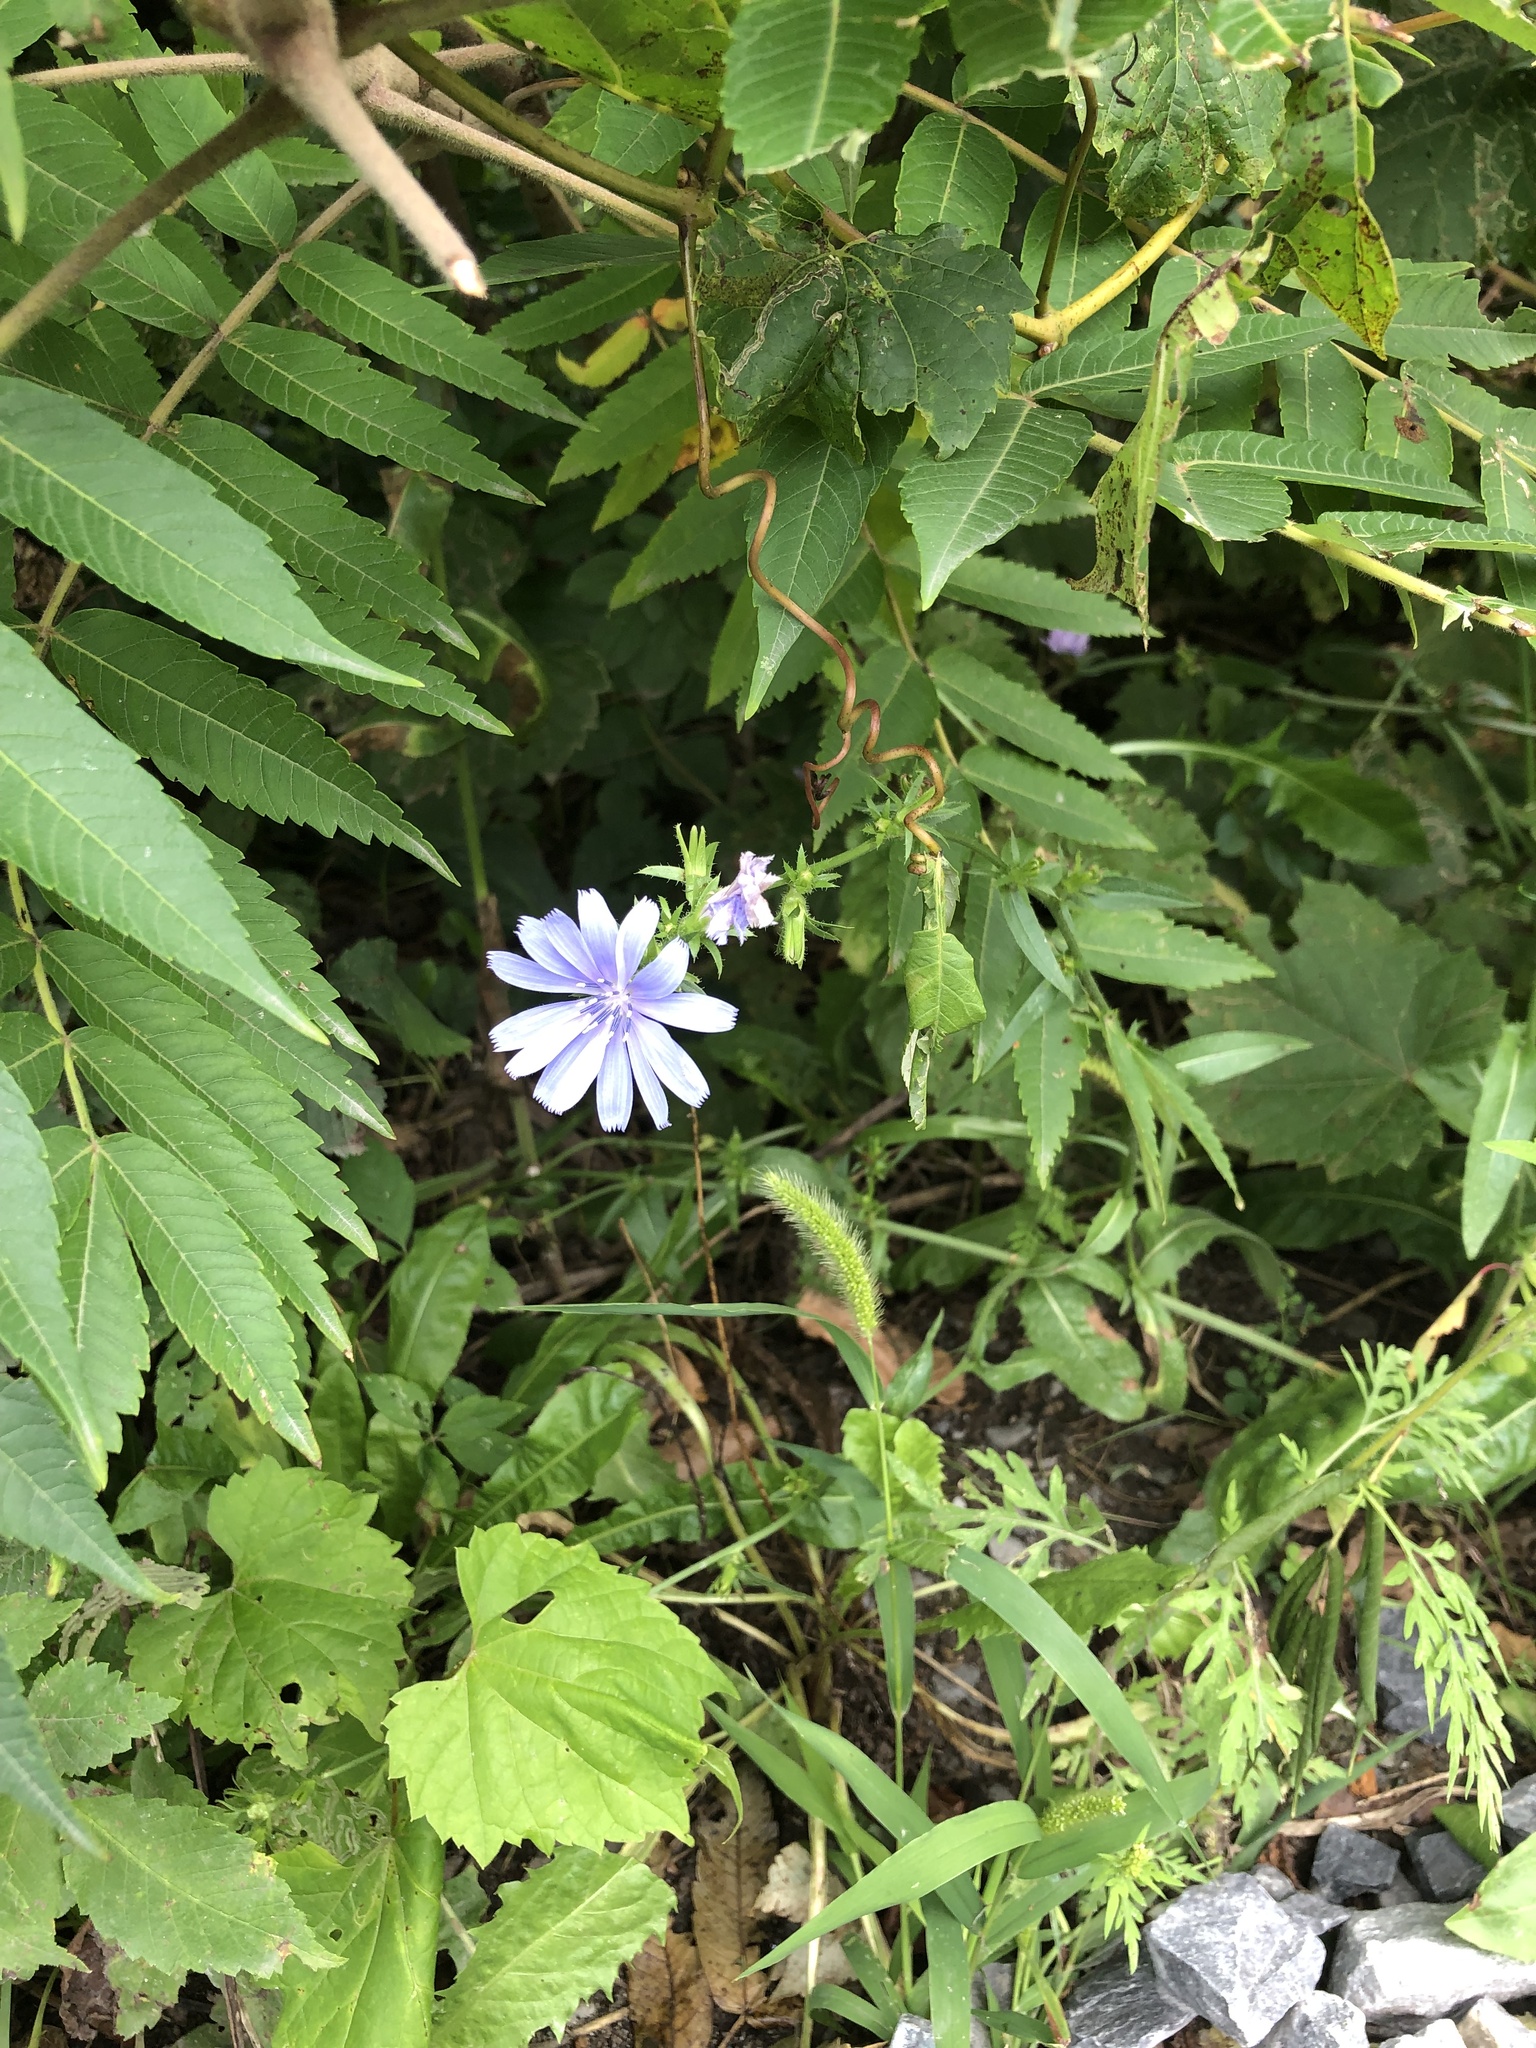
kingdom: Plantae
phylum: Tracheophyta
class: Magnoliopsida
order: Asterales
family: Asteraceae
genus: Cichorium
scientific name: Cichorium intybus
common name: Chicory
